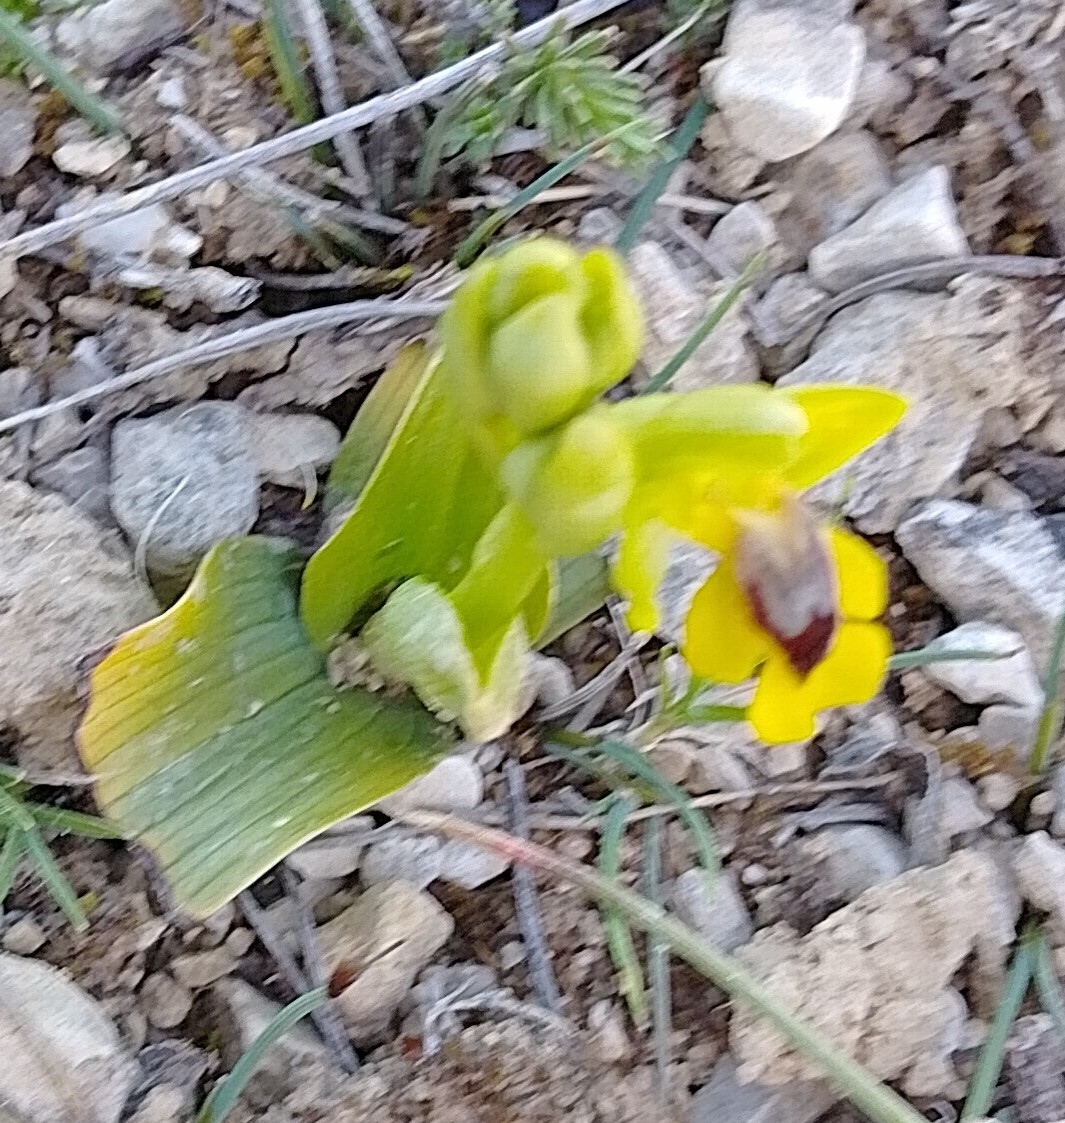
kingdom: Plantae
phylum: Tracheophyta
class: Liliopsida
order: Asparagales
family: Orchidaceae
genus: Ophrys
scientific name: Ophrys lutea
